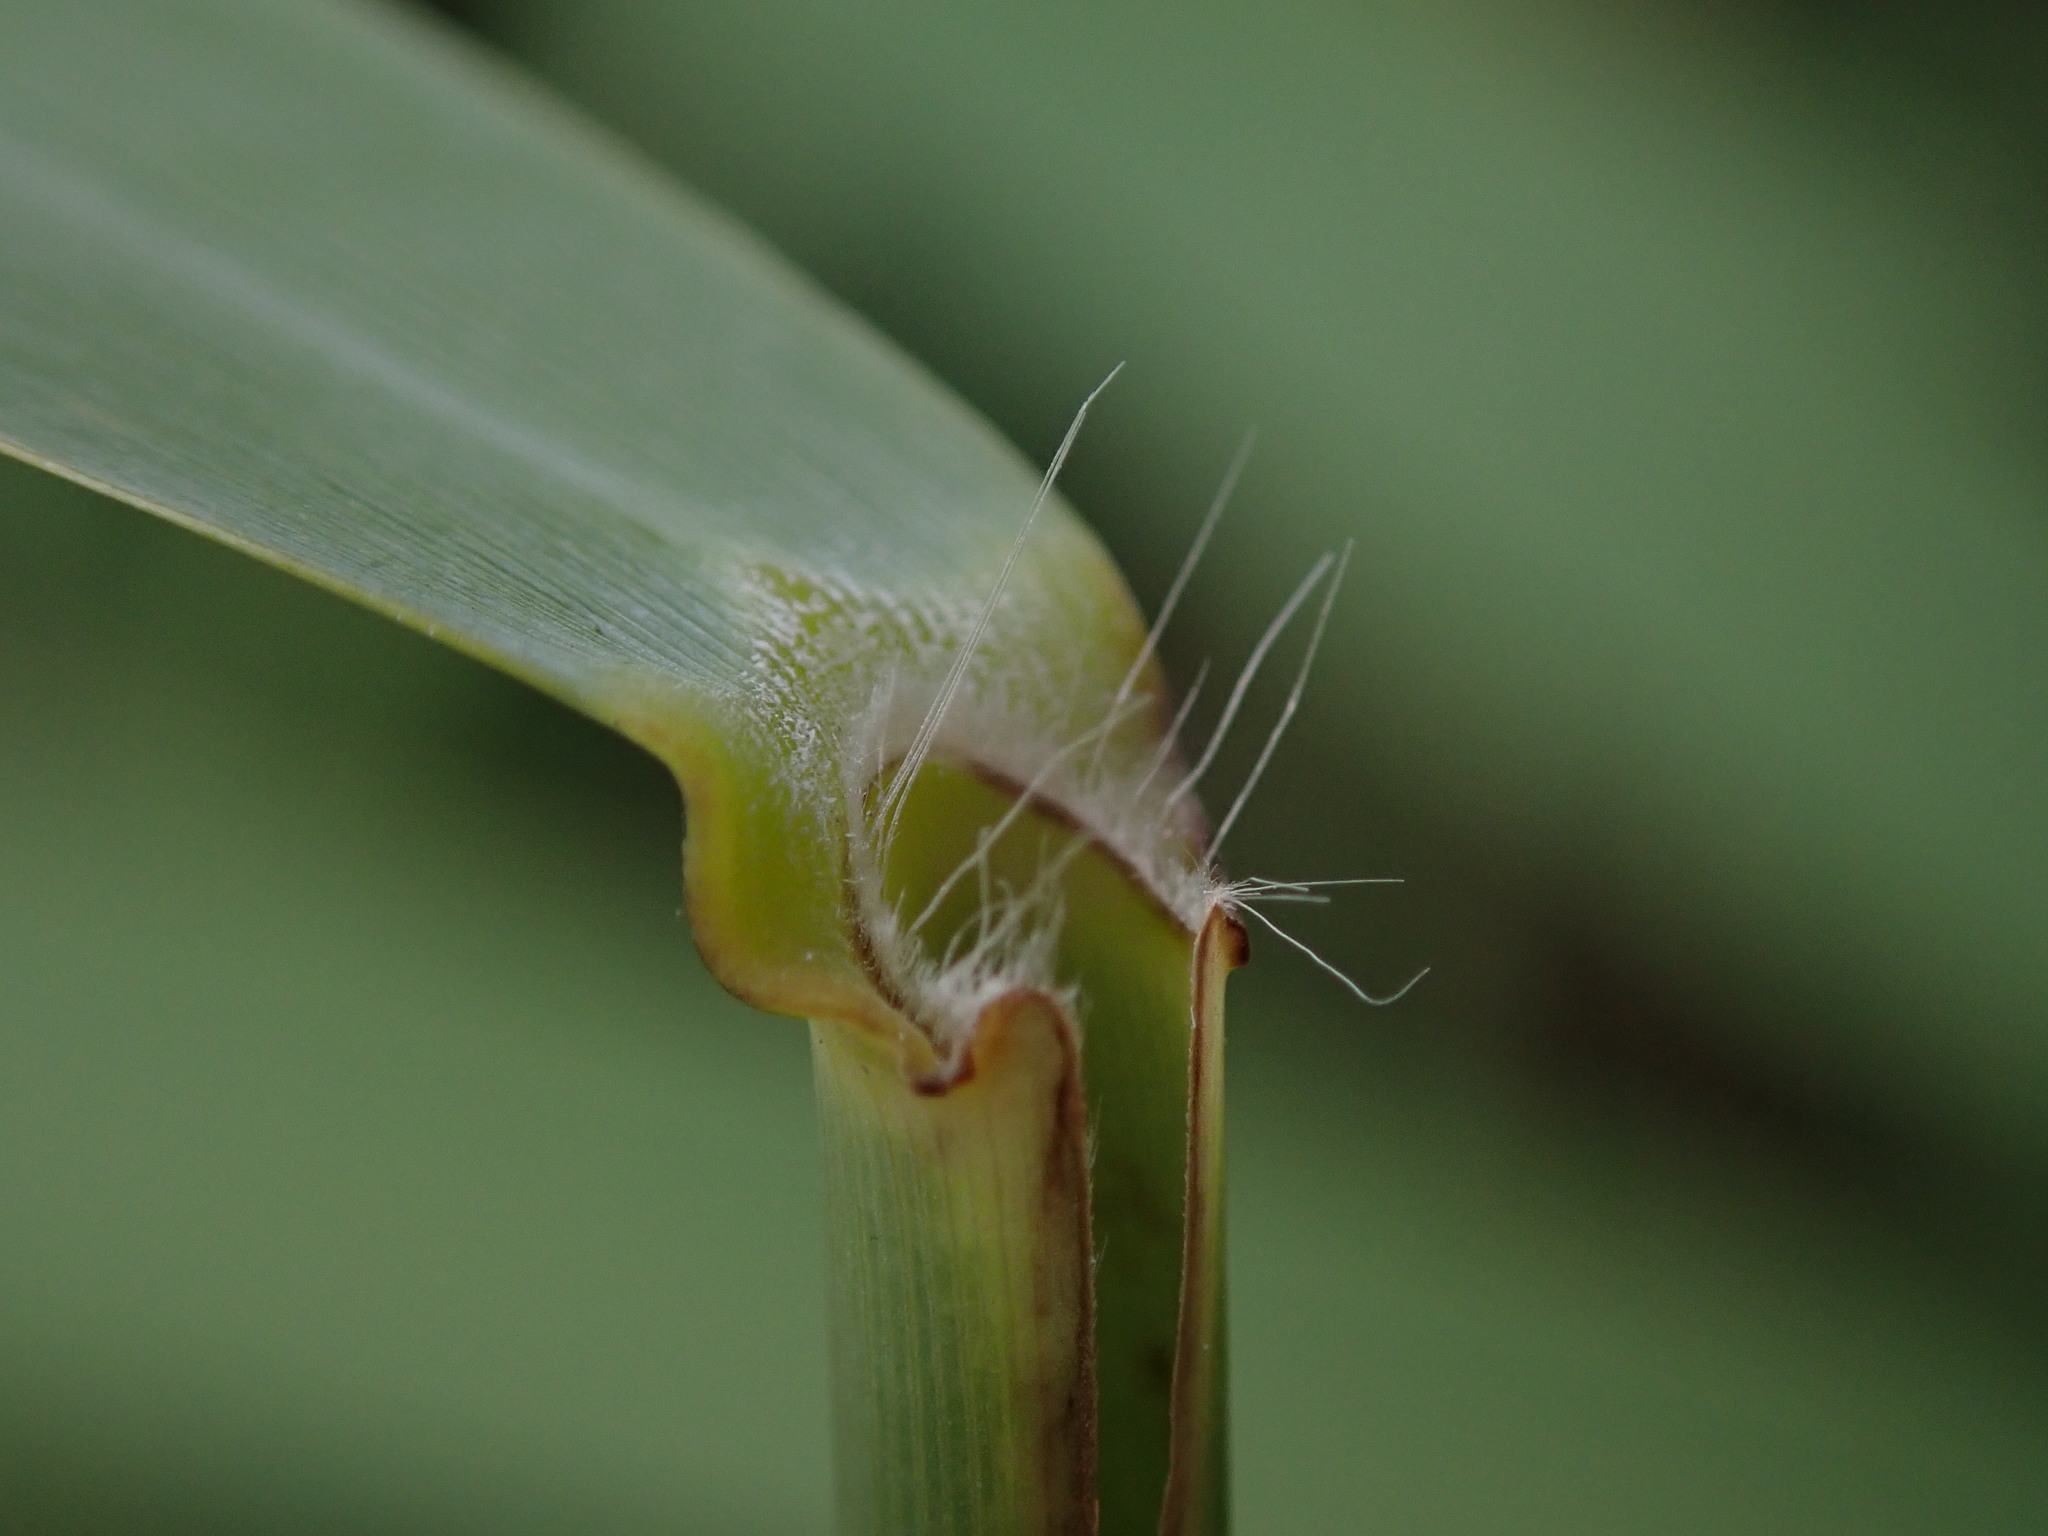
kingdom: Plantae
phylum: Tracheophyta
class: Liliopsida
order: Poales
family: Poaceae
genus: Phragmites
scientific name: Phragmites australis
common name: Common reed
